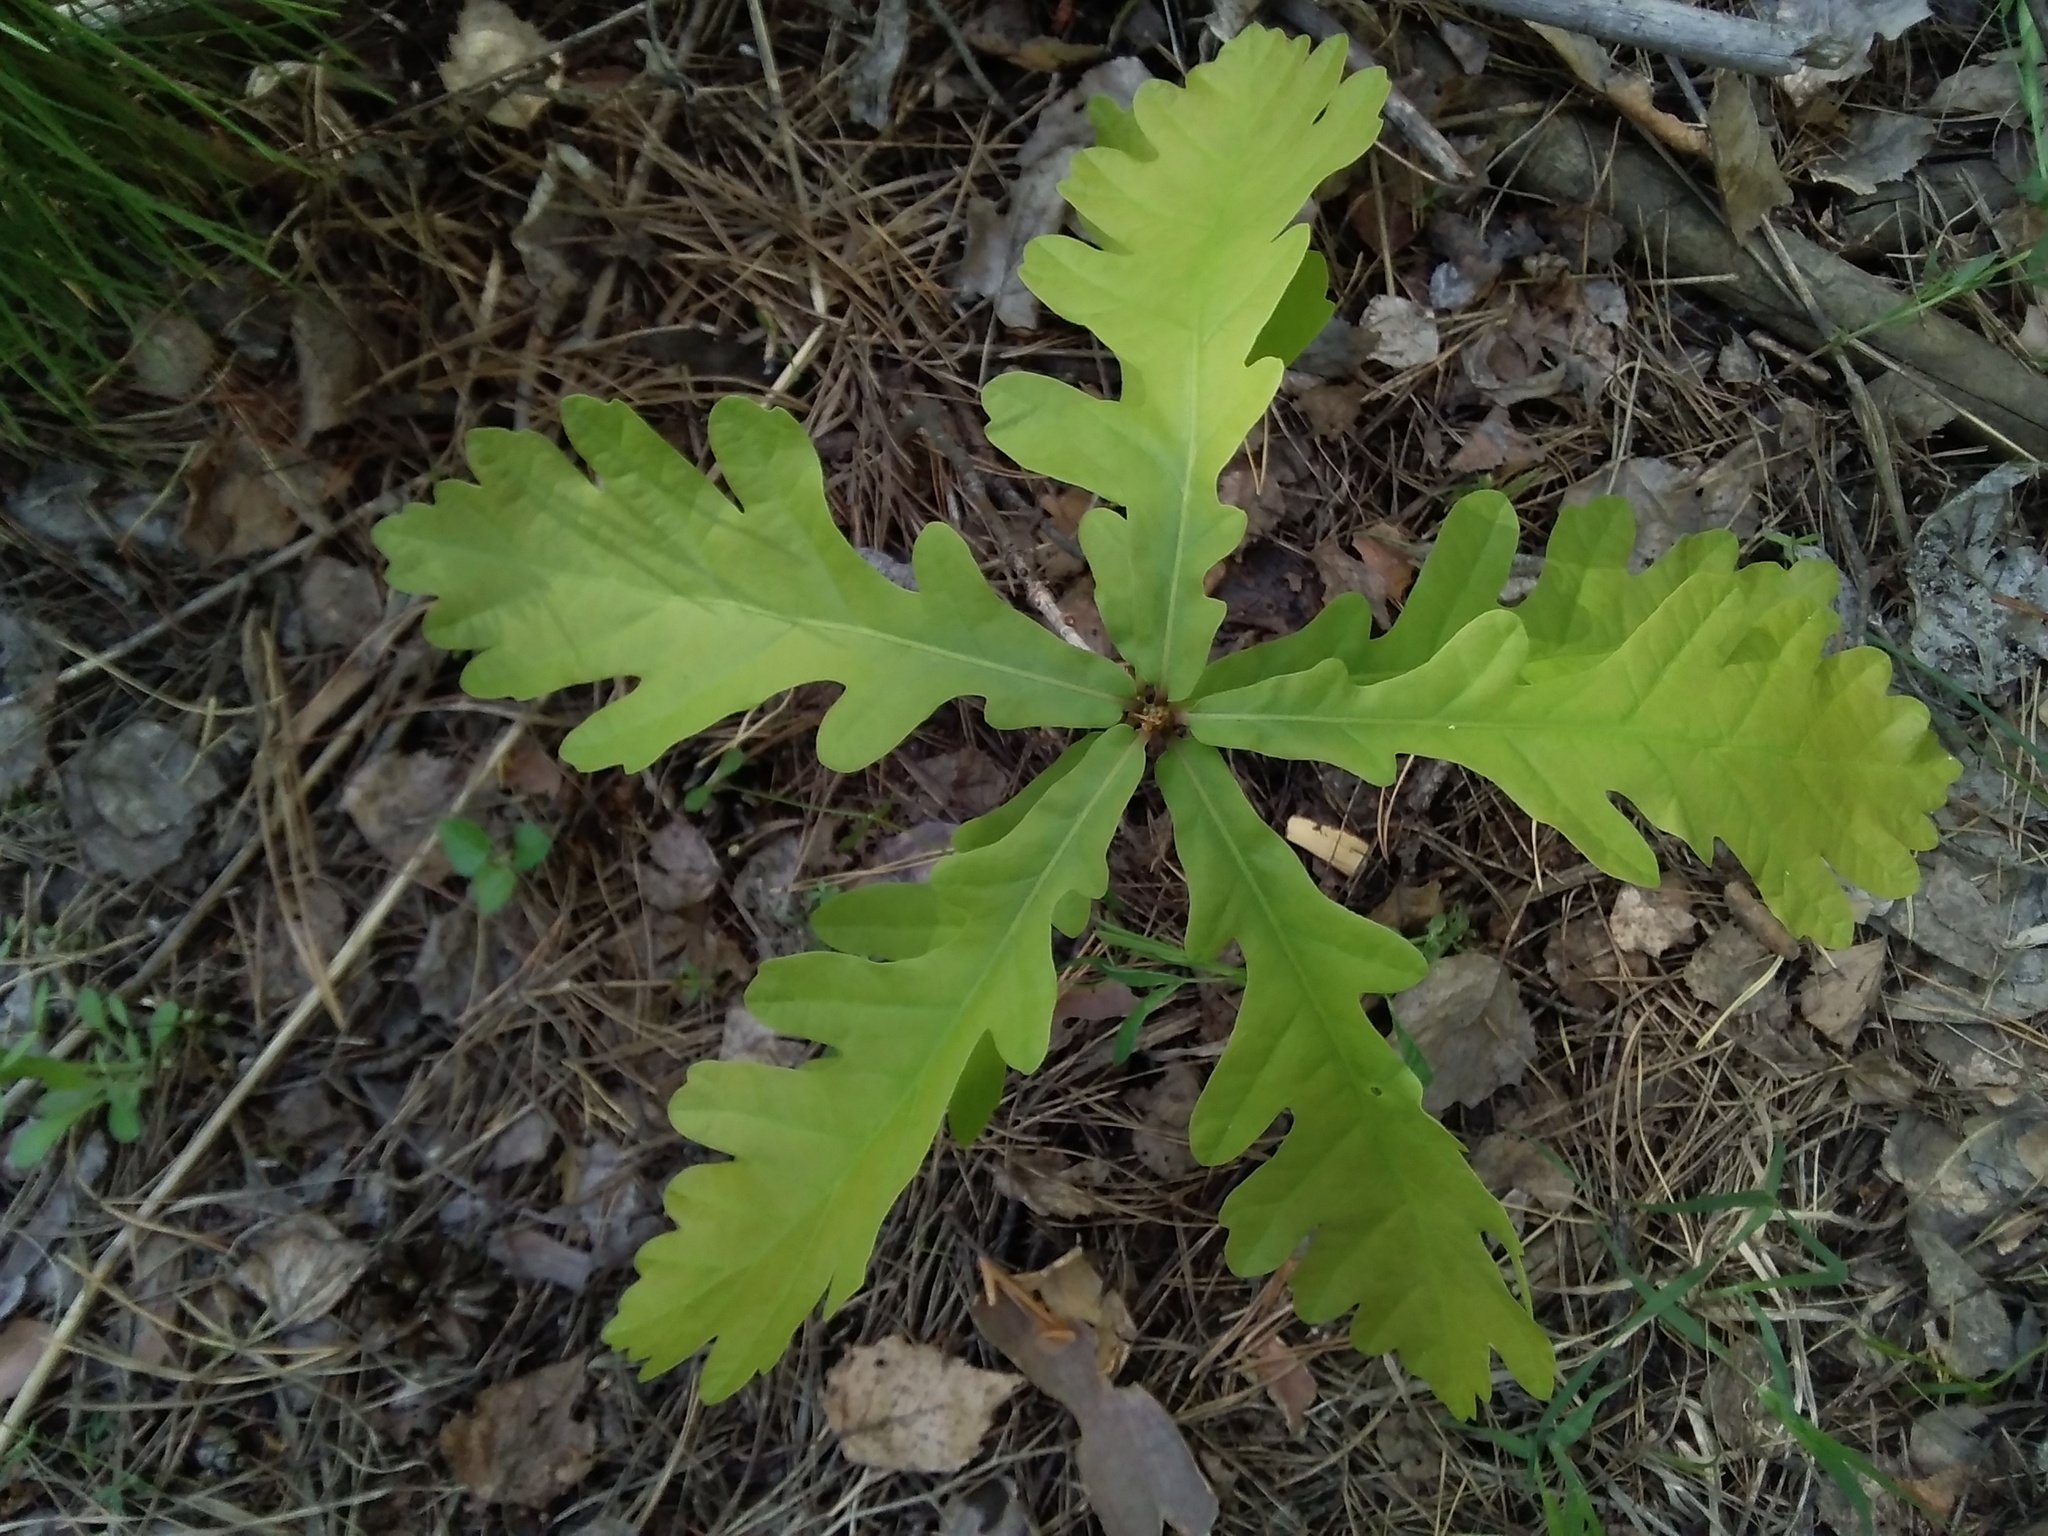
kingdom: Plantae
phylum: Tracheophyta
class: Magnoliopsida
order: Fagales
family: Fagaceae
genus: Quercus
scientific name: Quercus robur
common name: Pedunculate oak
